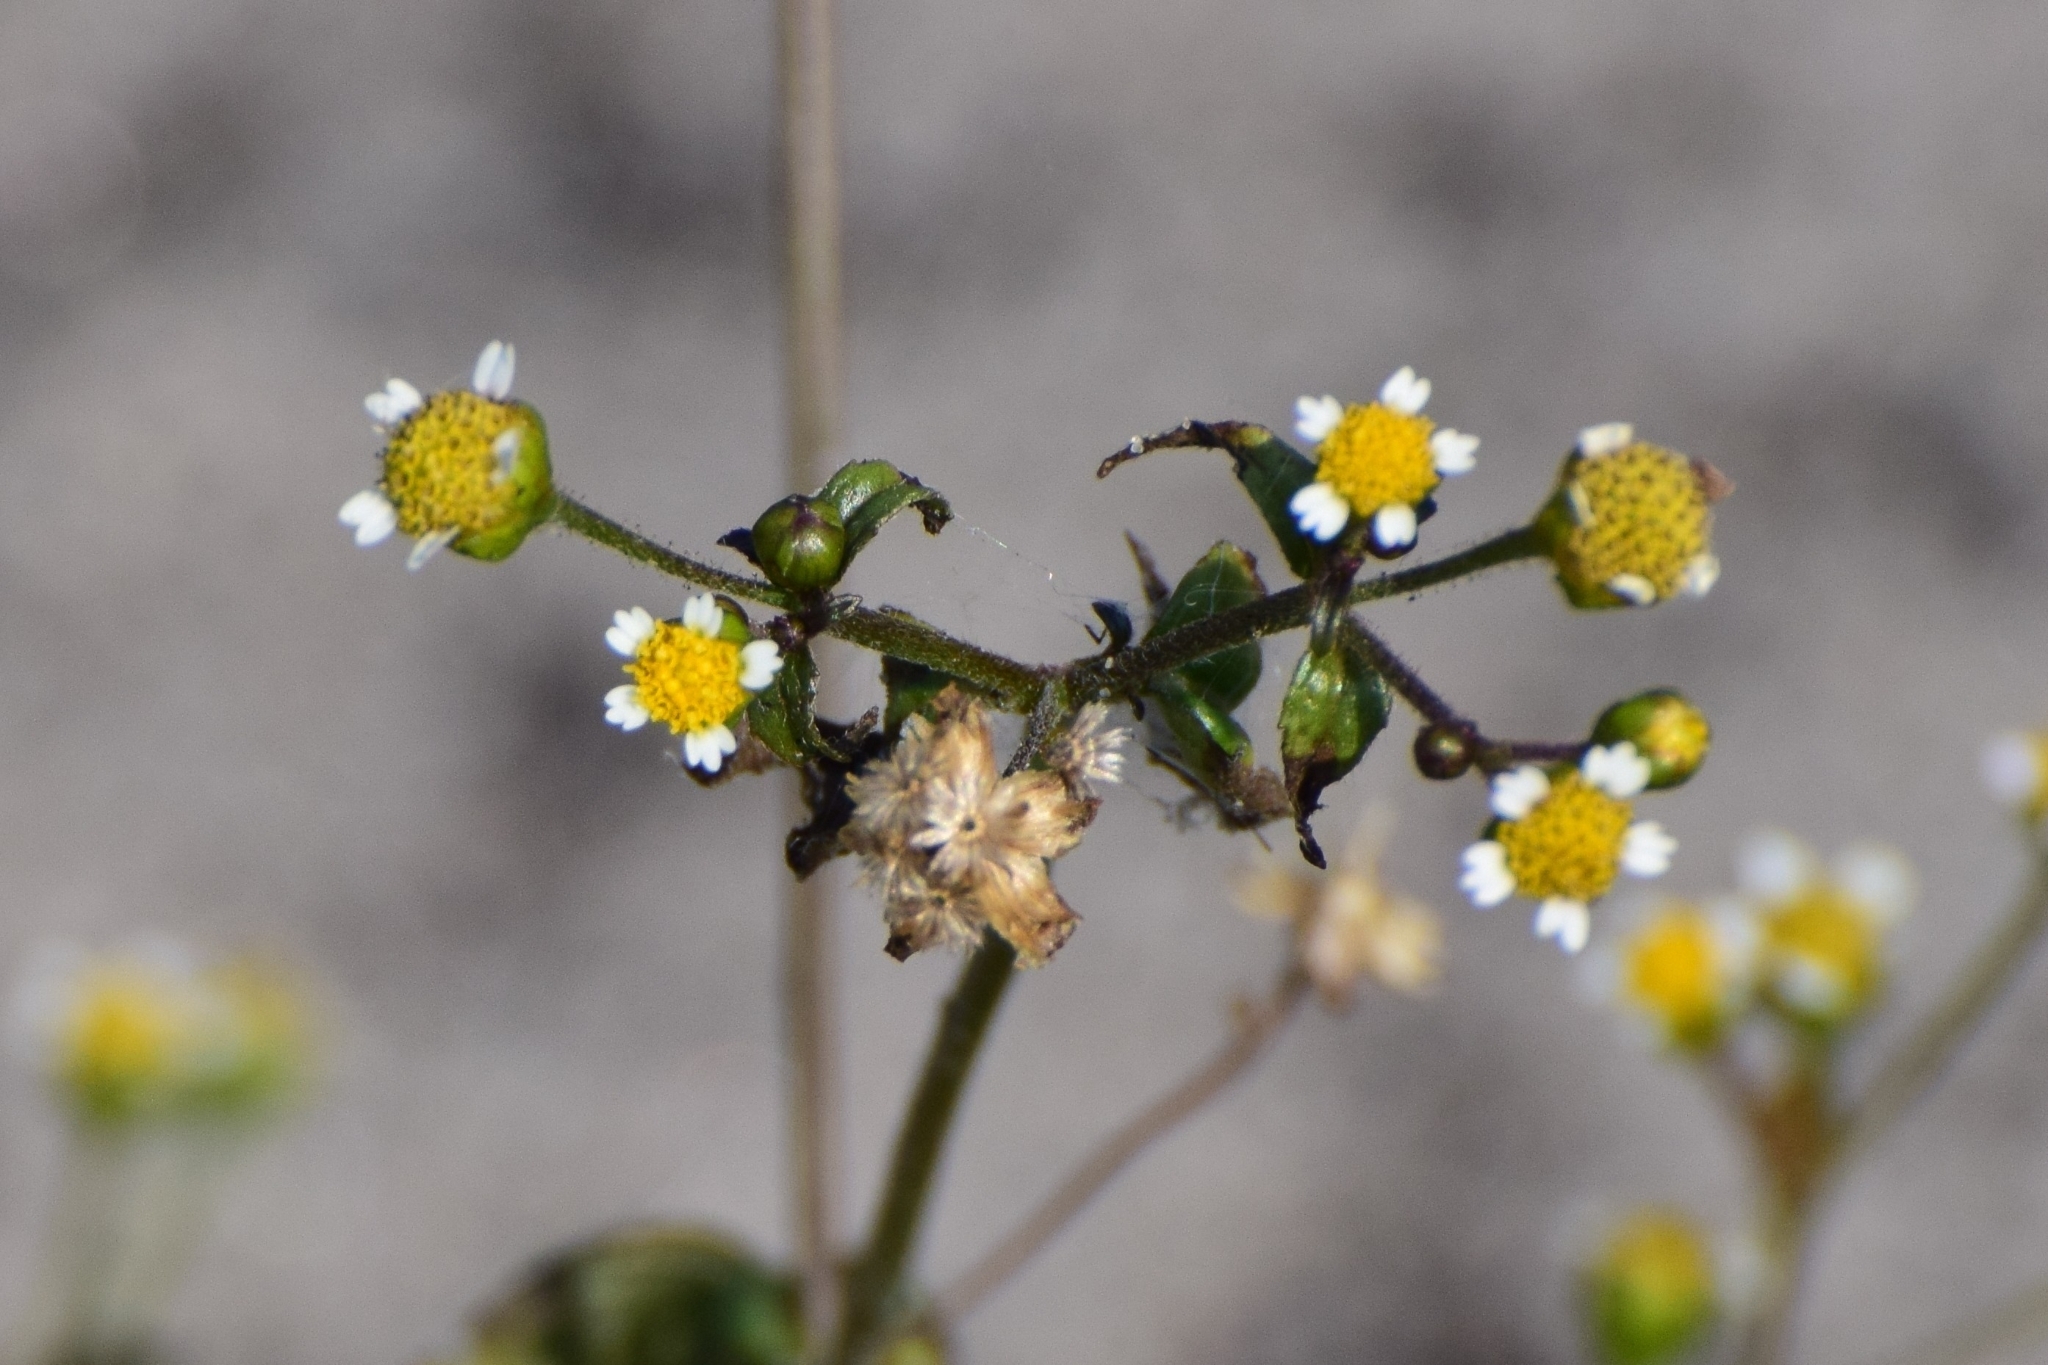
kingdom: Plantae
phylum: Tracheophyta
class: Magnoliopsida
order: Asterales
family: Asteraceae
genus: Galinsoga
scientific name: Galinsoga parviflora
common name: Gallant soldier
